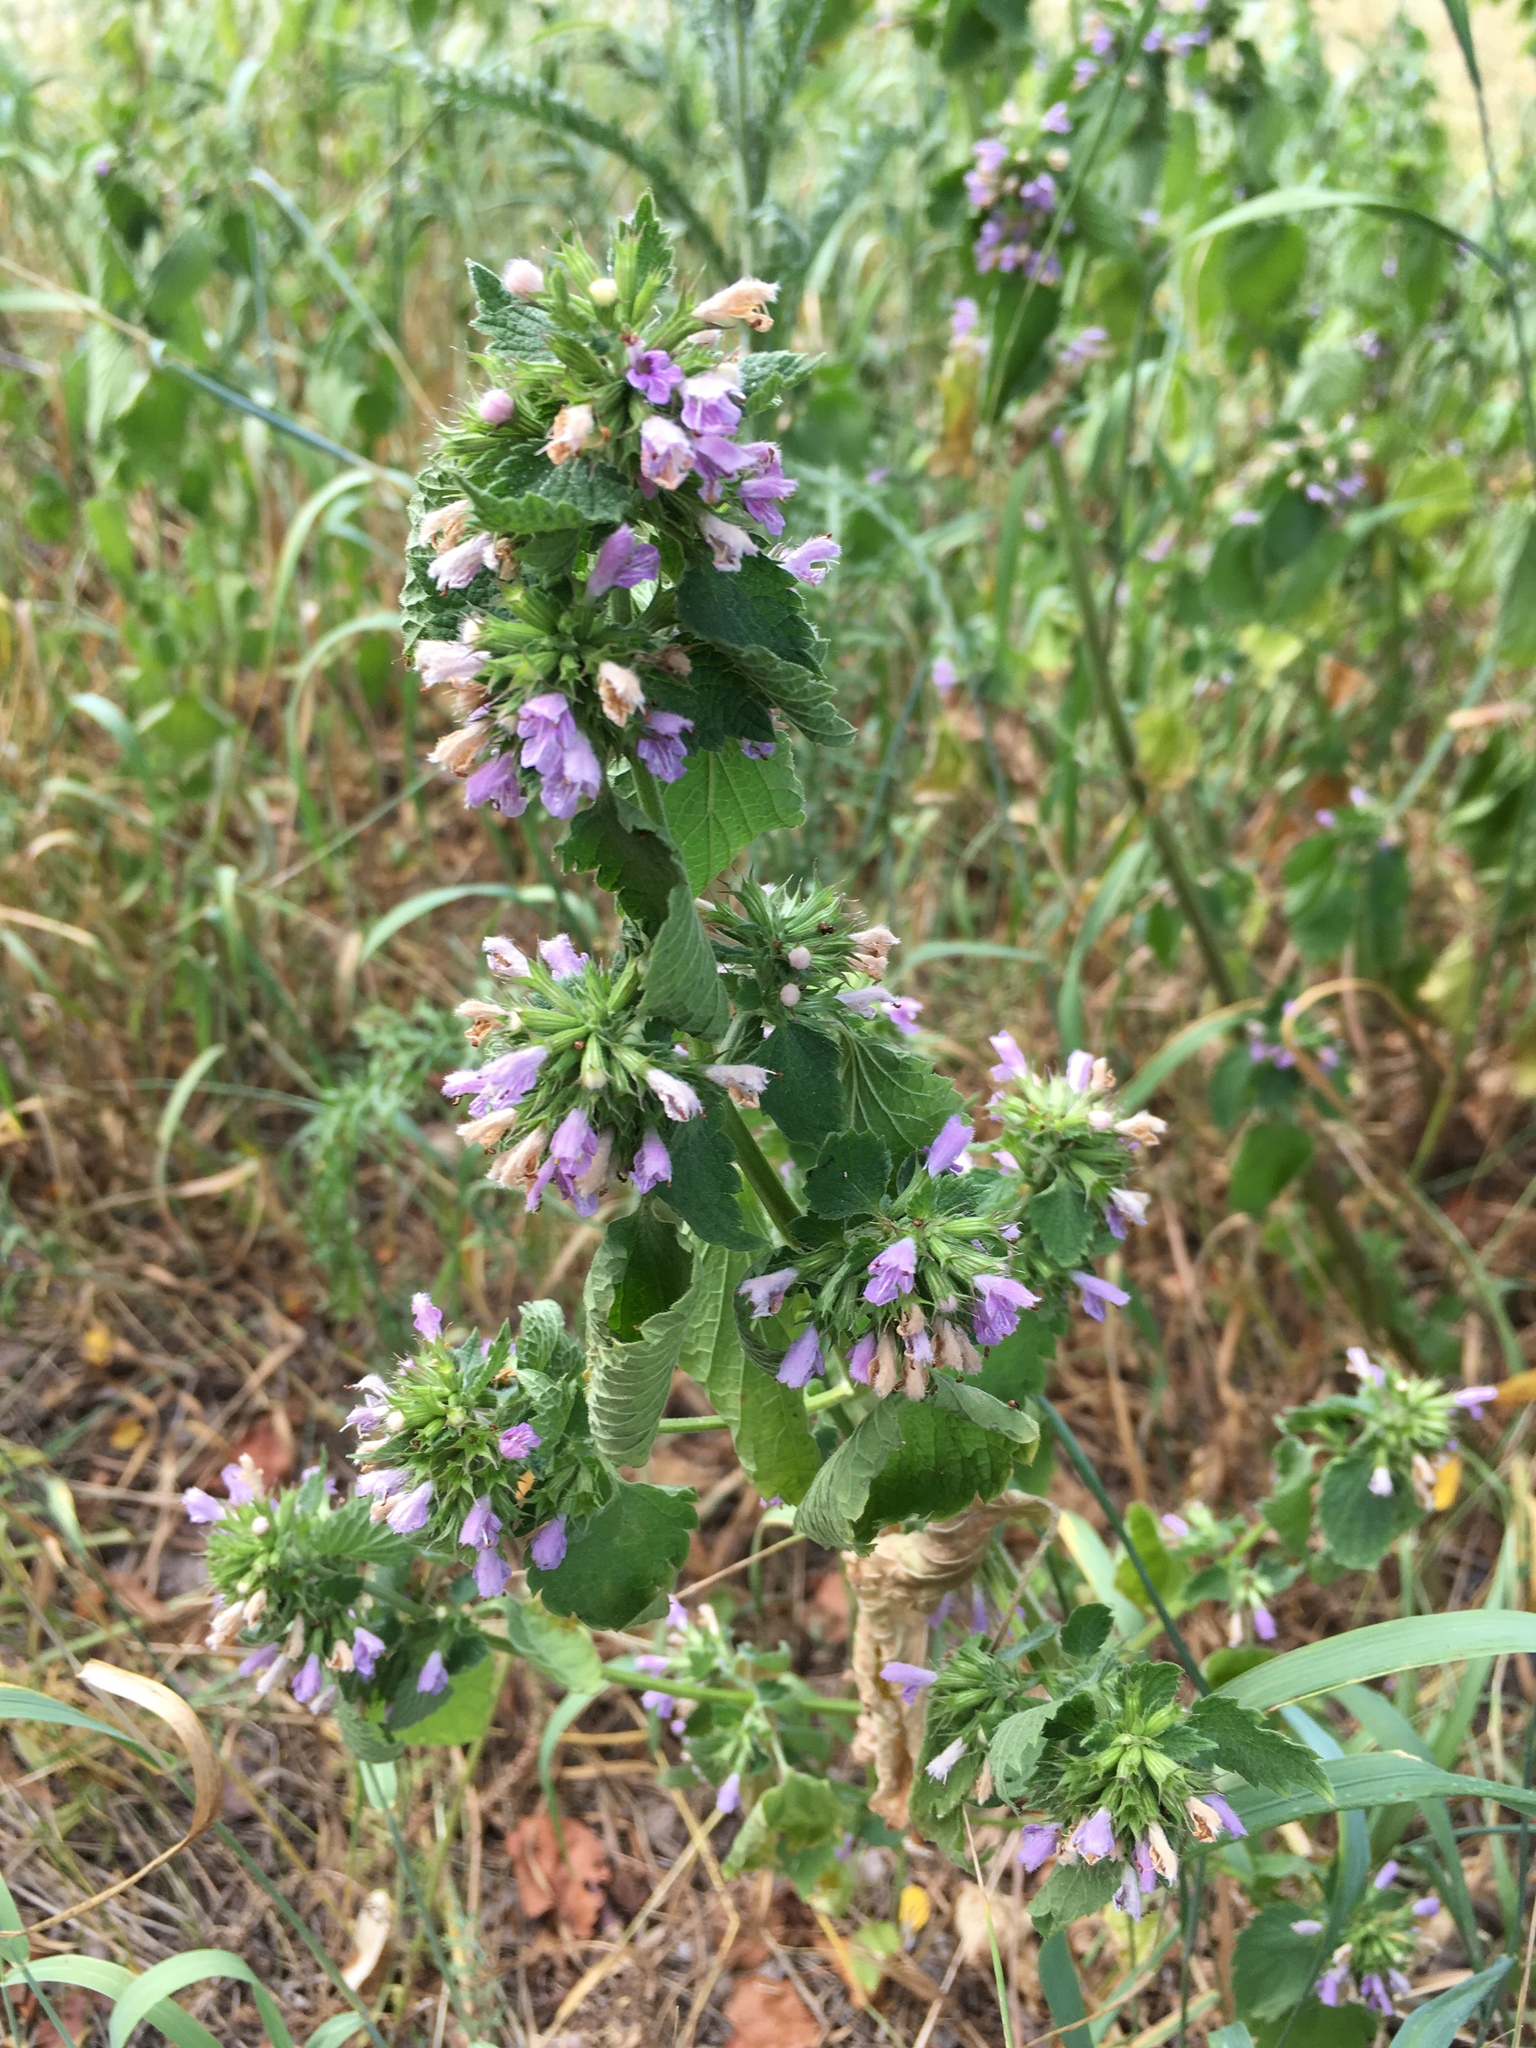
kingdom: Plantae
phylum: Tracheophyta
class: Magnoliopsida
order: Lamiales
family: Lamiaceae
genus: Ballota
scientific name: Ballota nigra
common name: Black horehound
